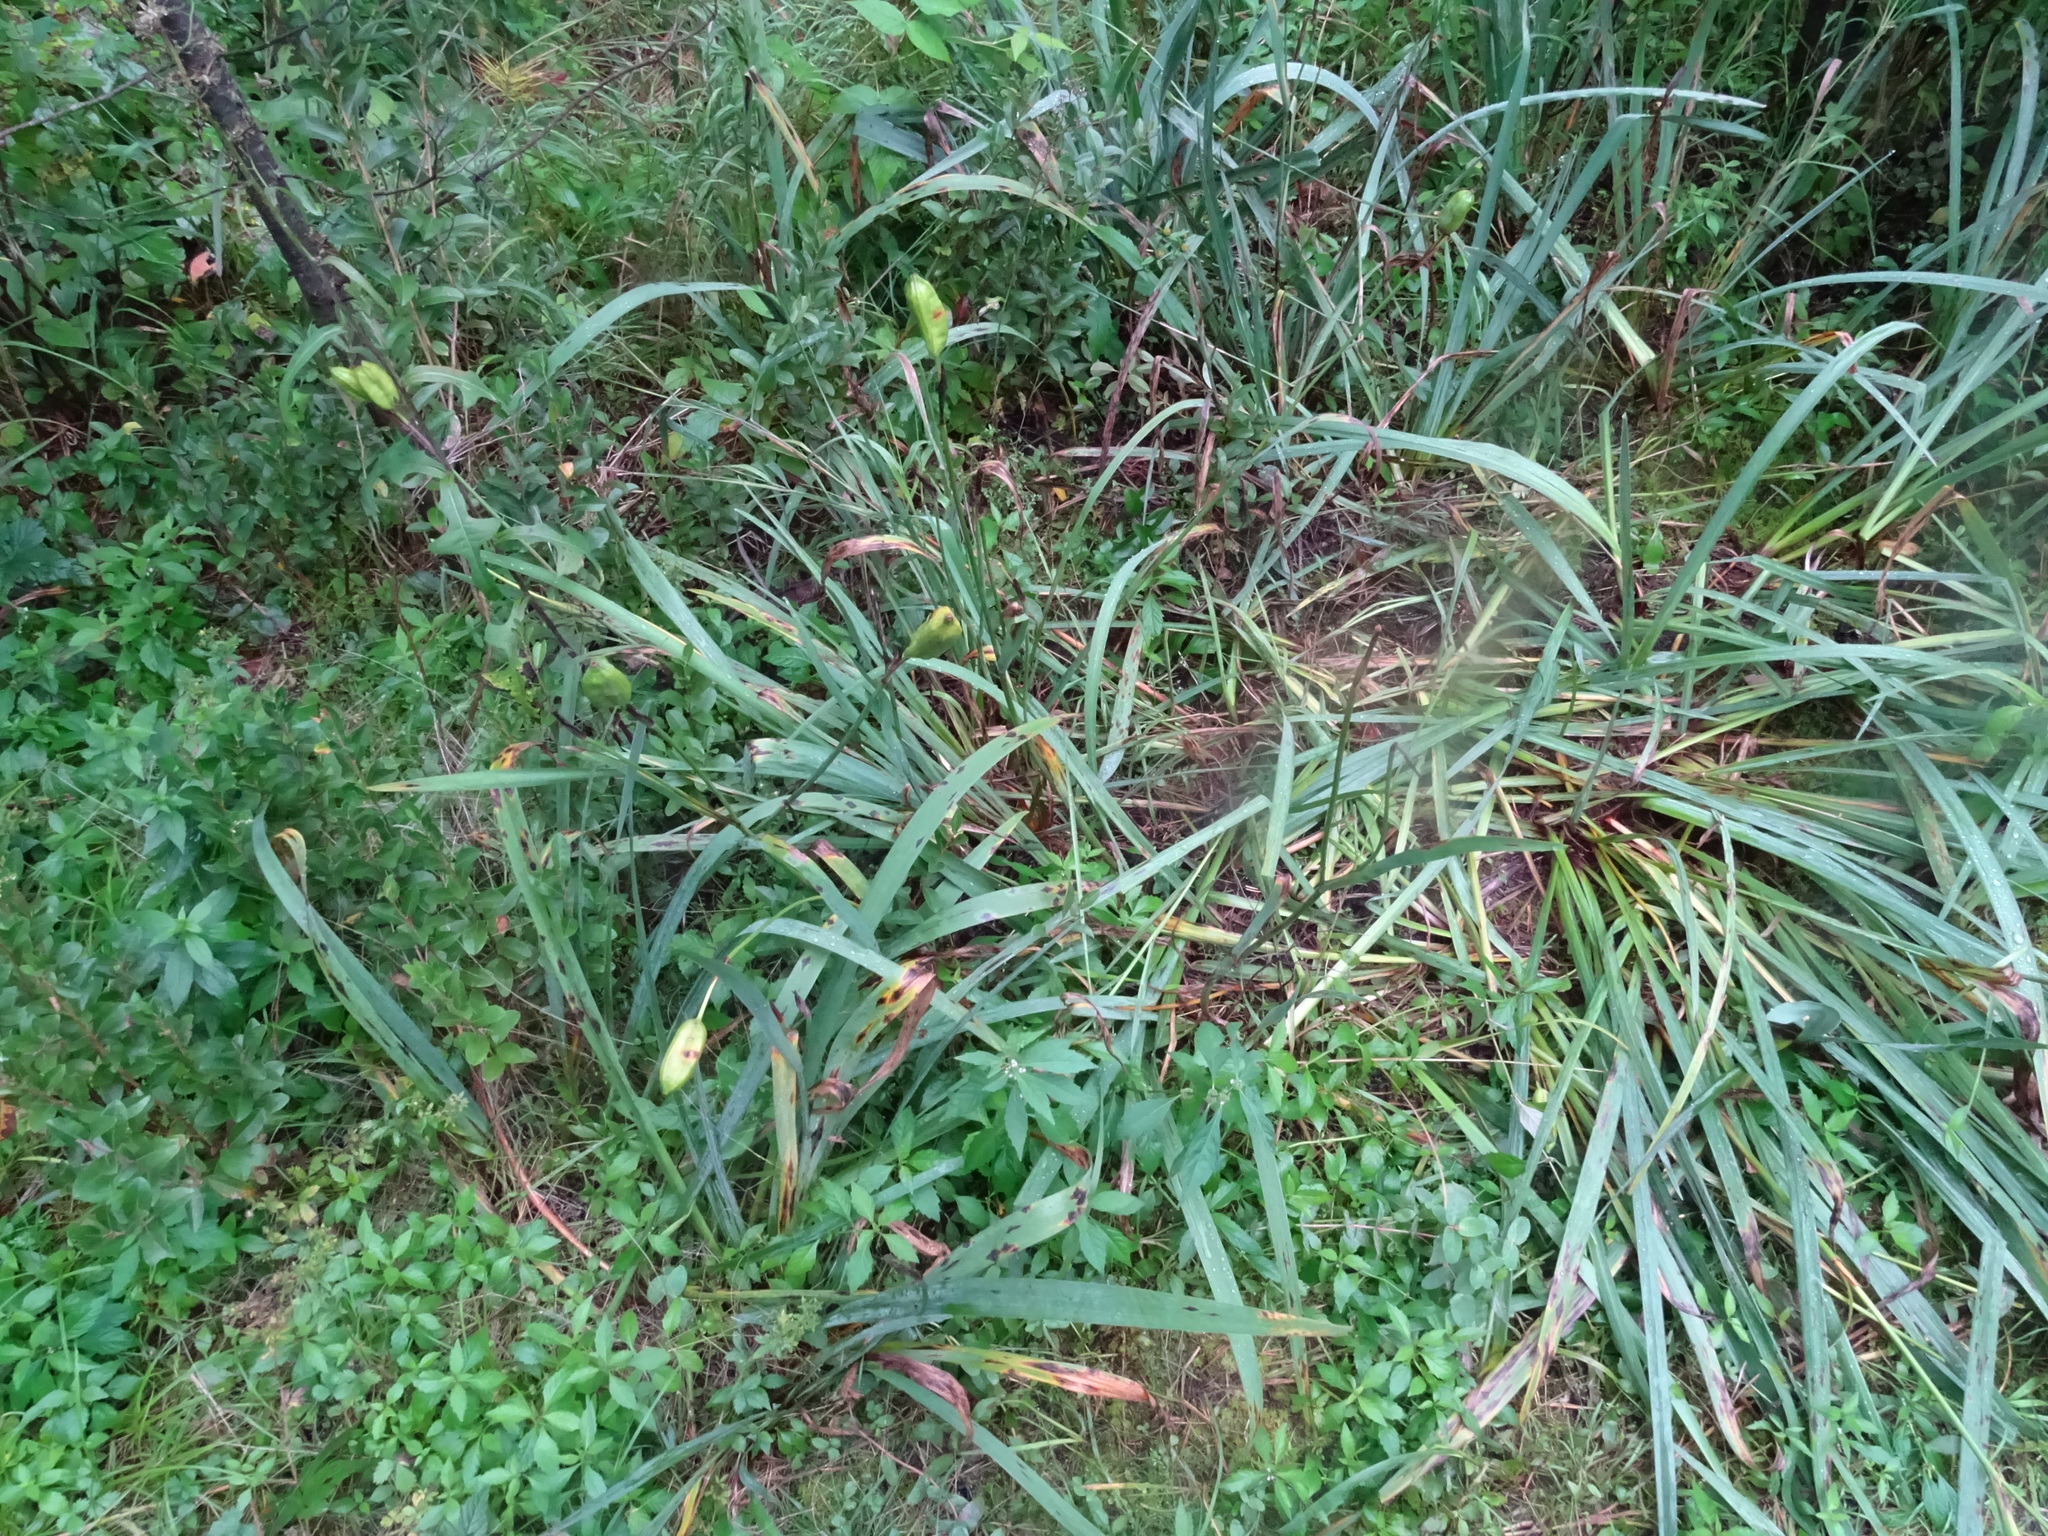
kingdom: Plantae
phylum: Tracheophyta
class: Liliopsida
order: Asparagales
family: Iridaceae
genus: Iris
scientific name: Iris versicolor
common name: Purple iris
